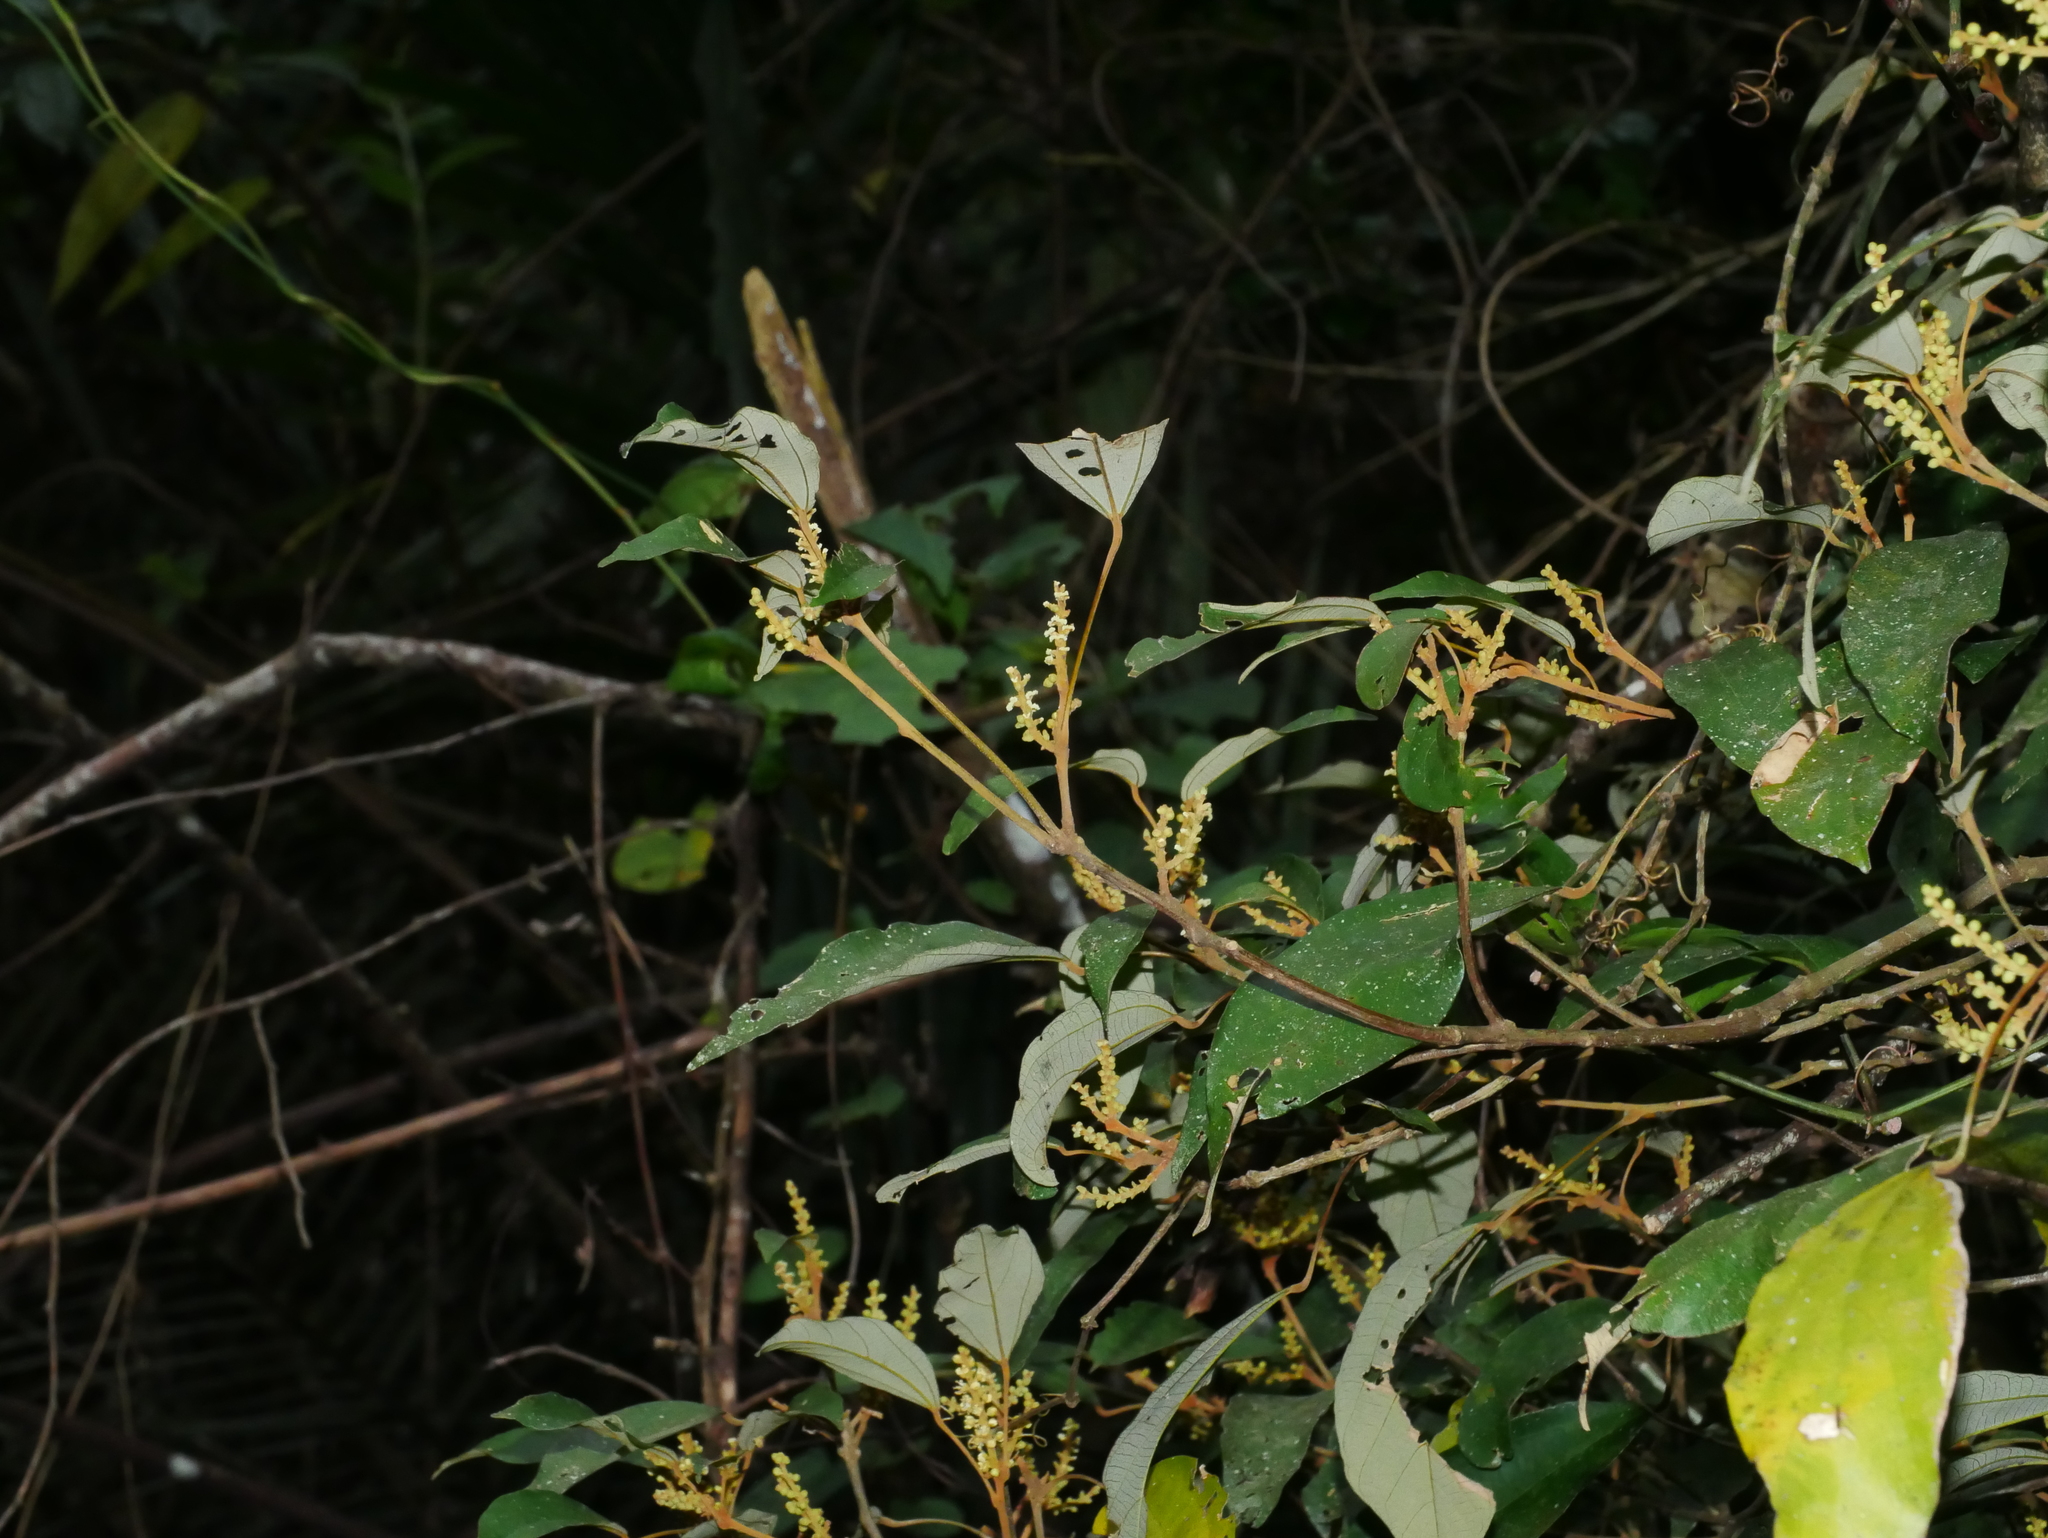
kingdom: Plantae
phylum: Tracheophyta
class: Magnoliopsida
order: Malpighiales
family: Euphorbiaceae
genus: Mallotus
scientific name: Mallotus philippensis
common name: Kamala tree
